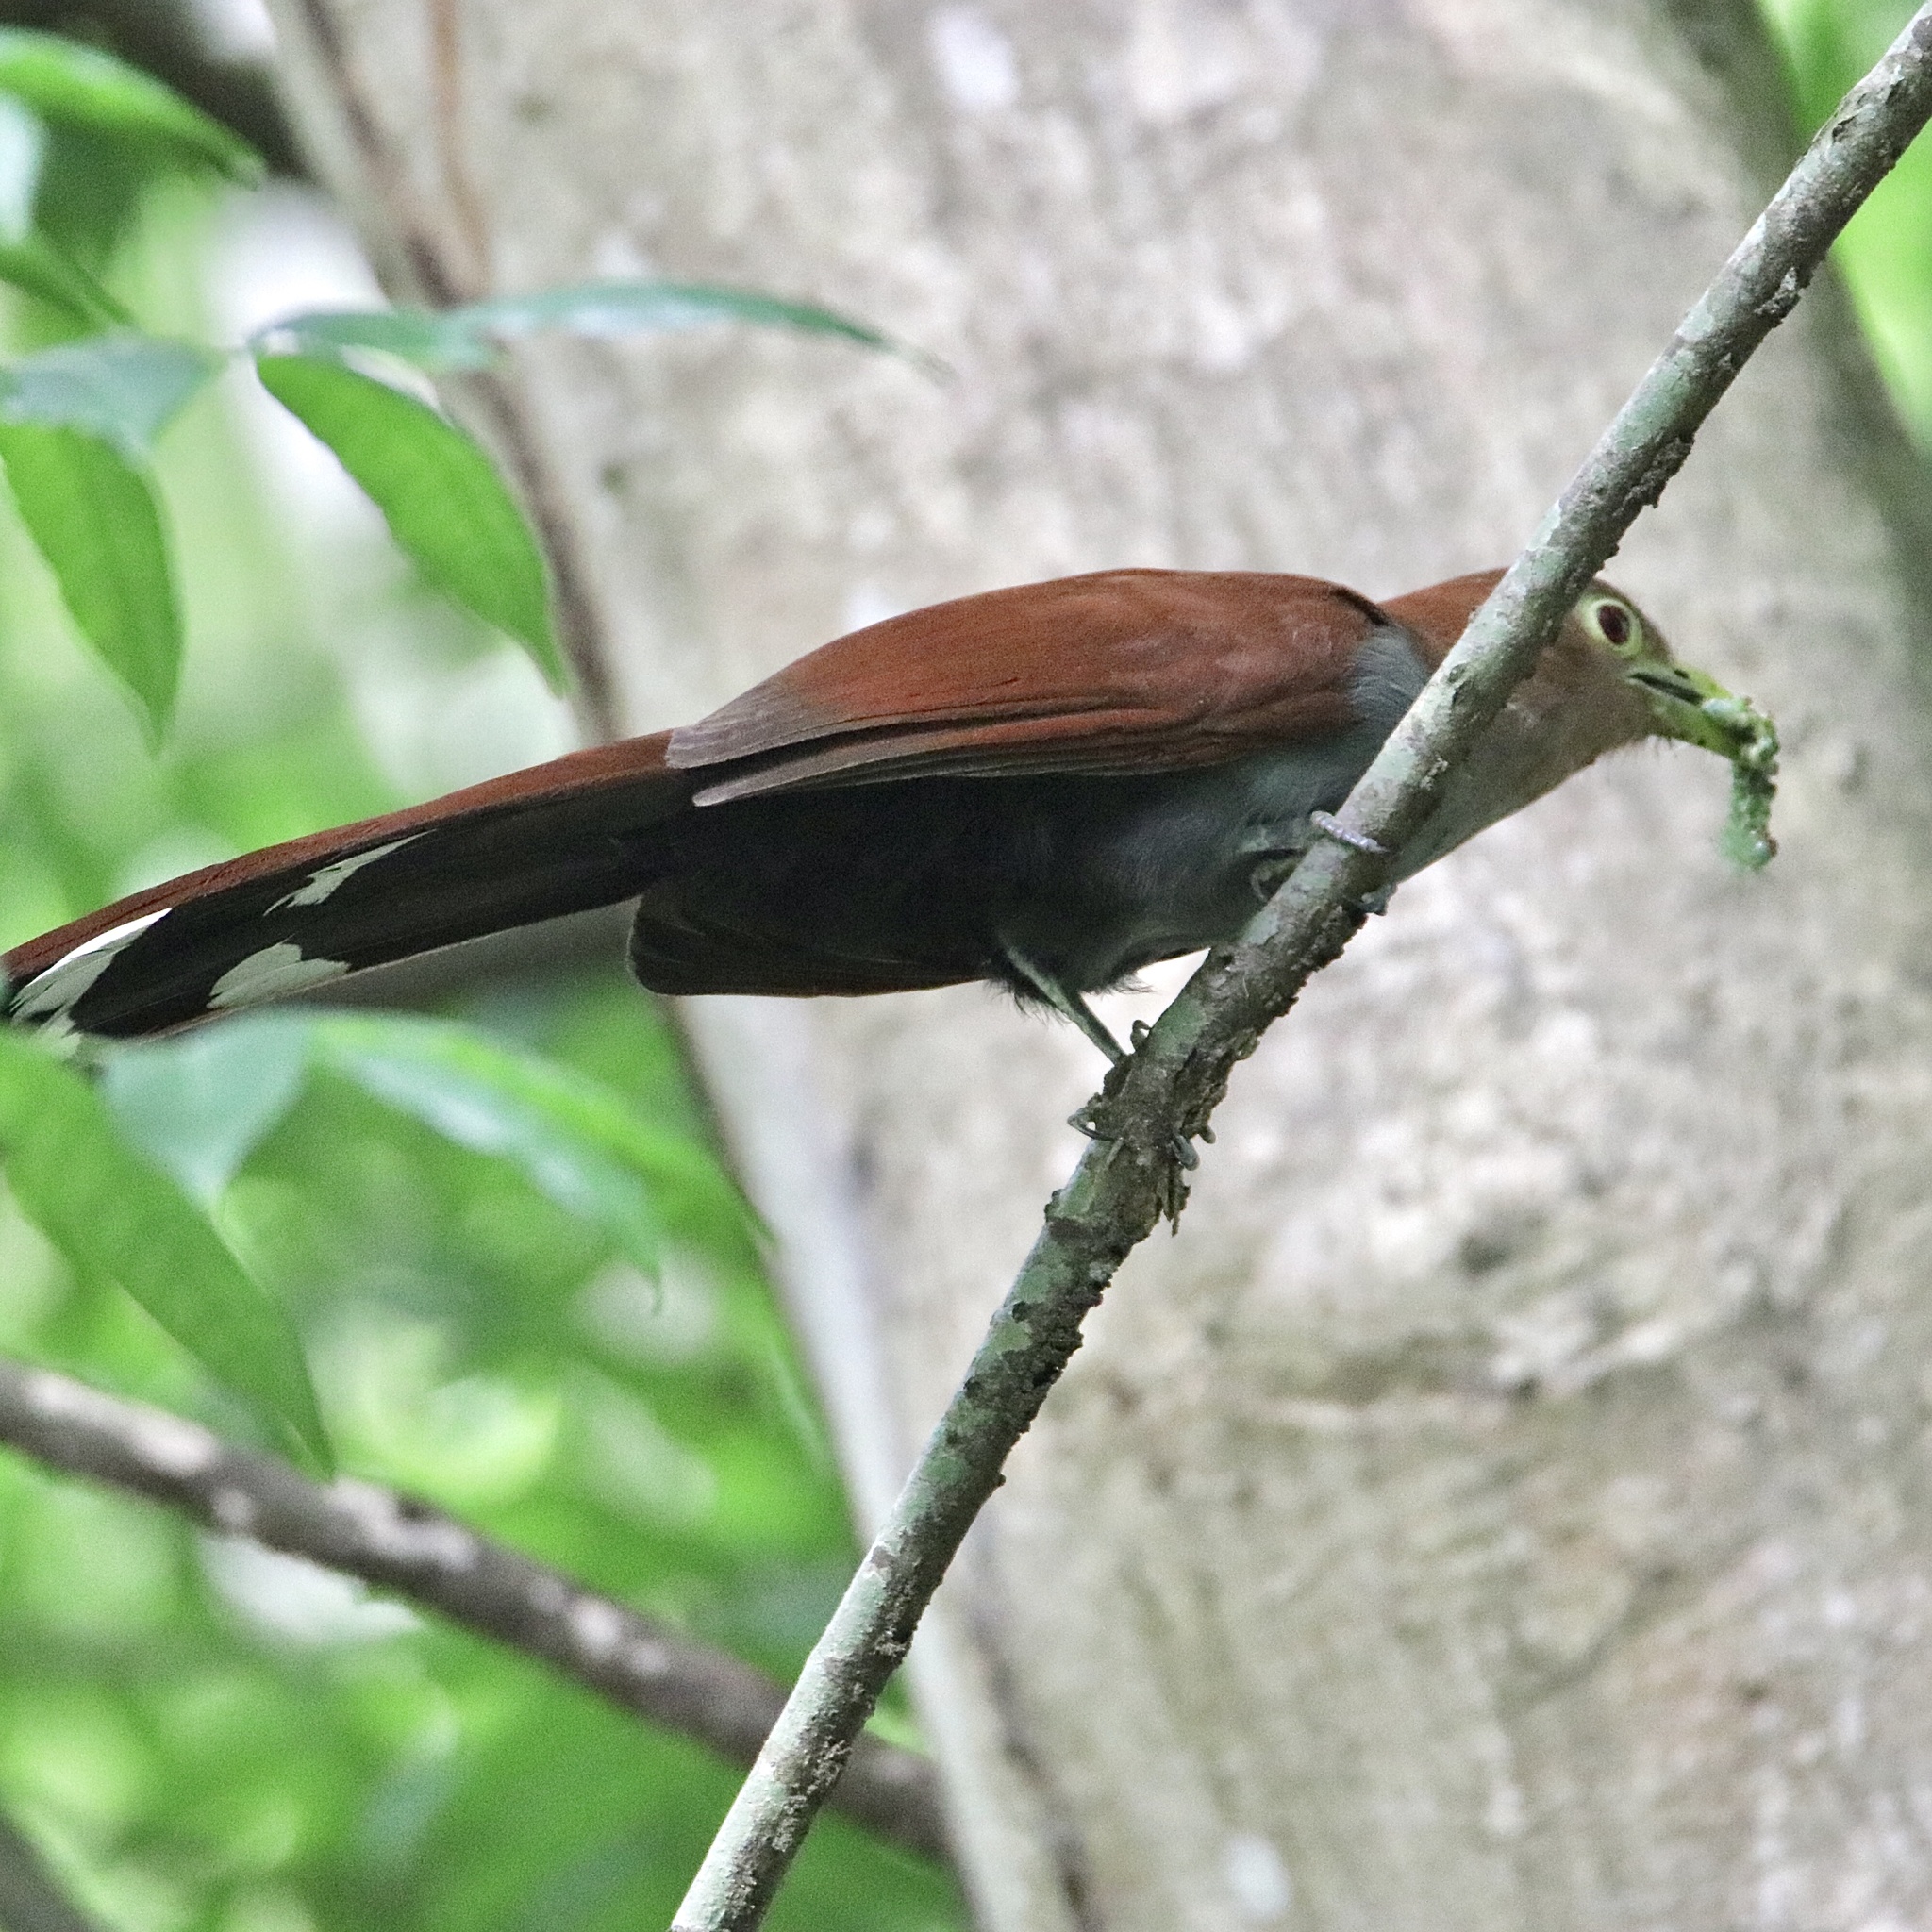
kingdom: Animalia
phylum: Chordata
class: Aves
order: Cuculiformes
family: Cuculidae
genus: Piaya
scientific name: Piaya cayana
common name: Squirrel cuckoo
